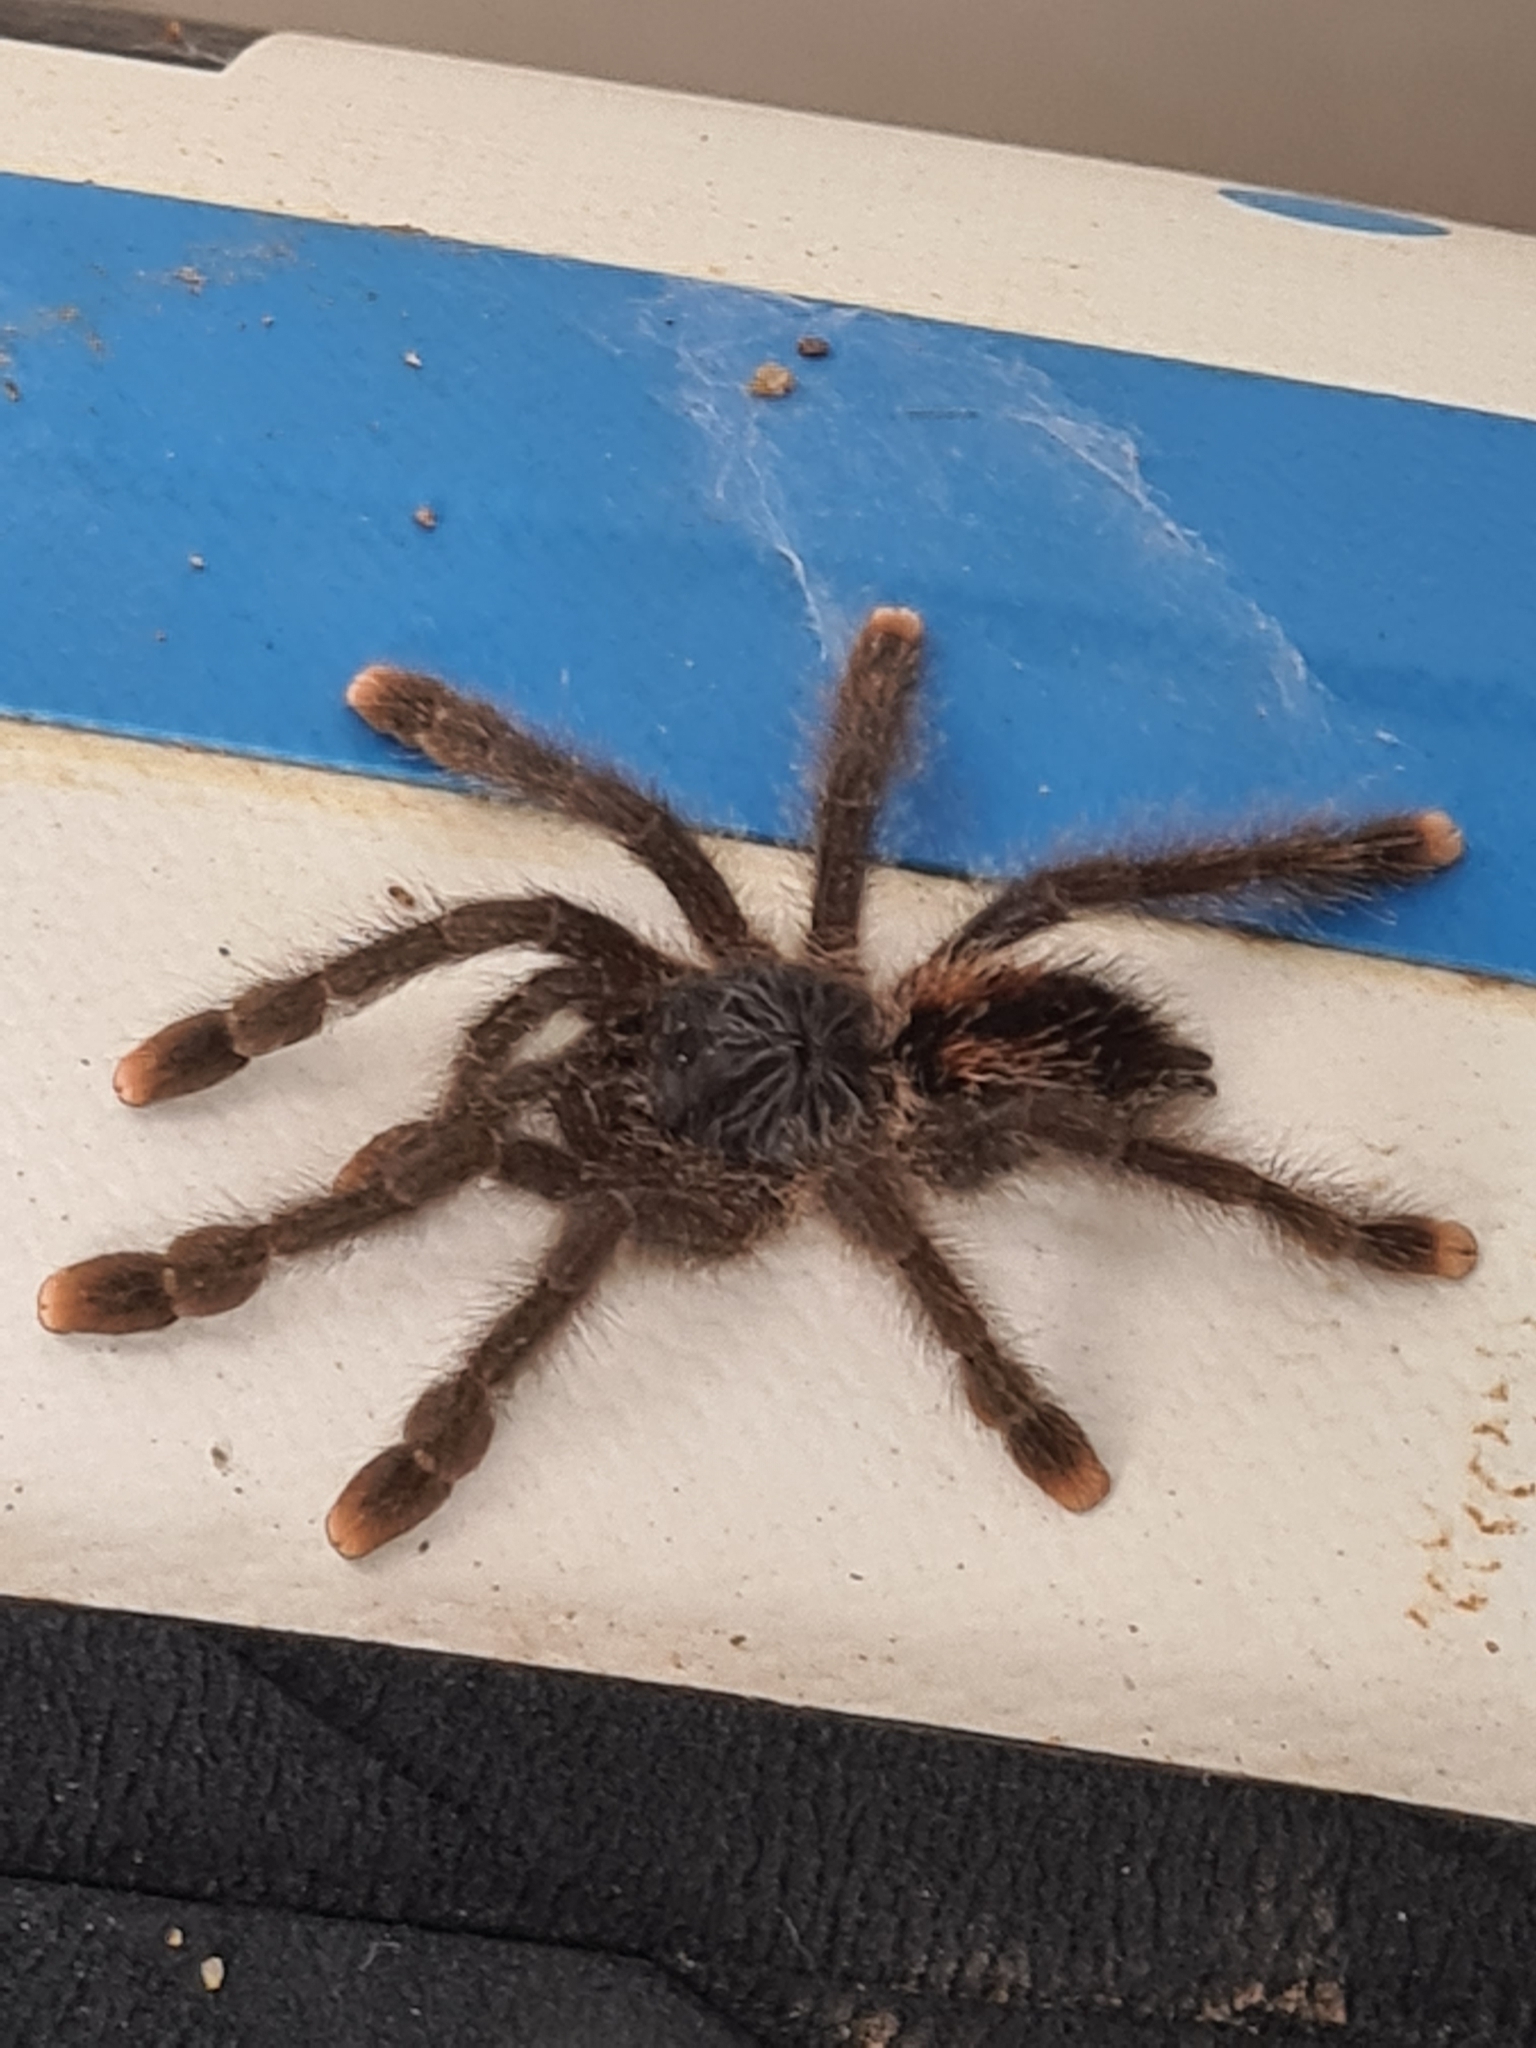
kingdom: Animalia
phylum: Arthropoda
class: Arachnida
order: Araneae
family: Theraphosidae
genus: Avicularia
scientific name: Avicularia avicularia
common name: Tarantula spiders
